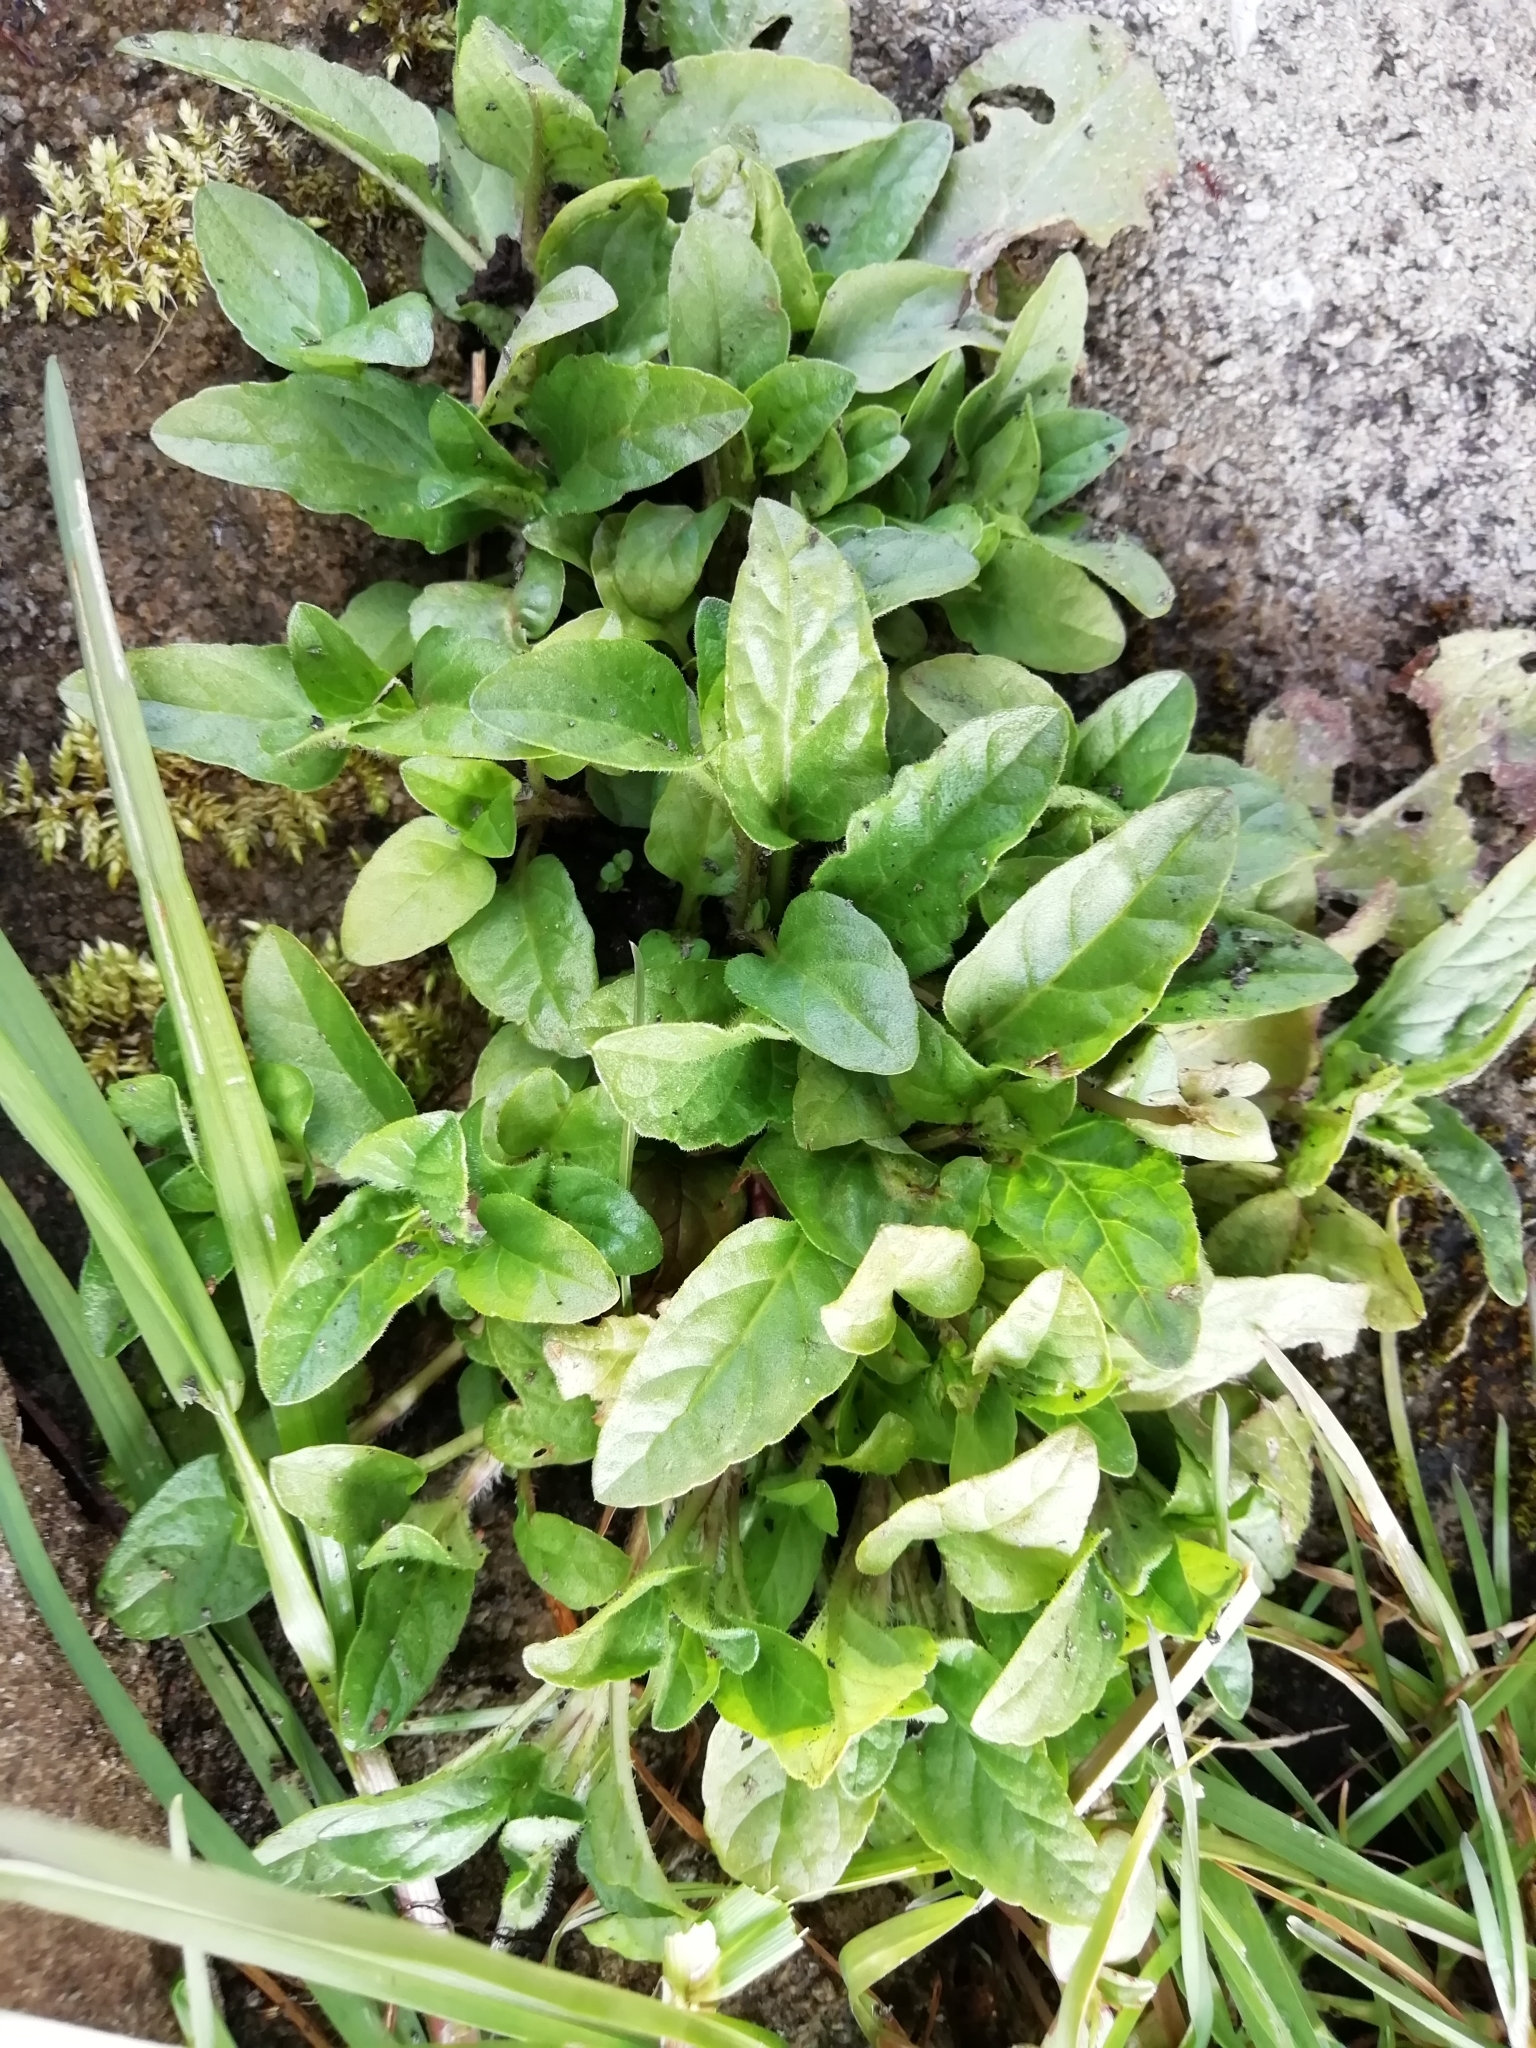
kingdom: Plantae
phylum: Tracheophyta
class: Magnoliopsida
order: Lamiales
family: Lamiaceae
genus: Prunella
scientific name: Prunella vulgaris
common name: Heal-all
